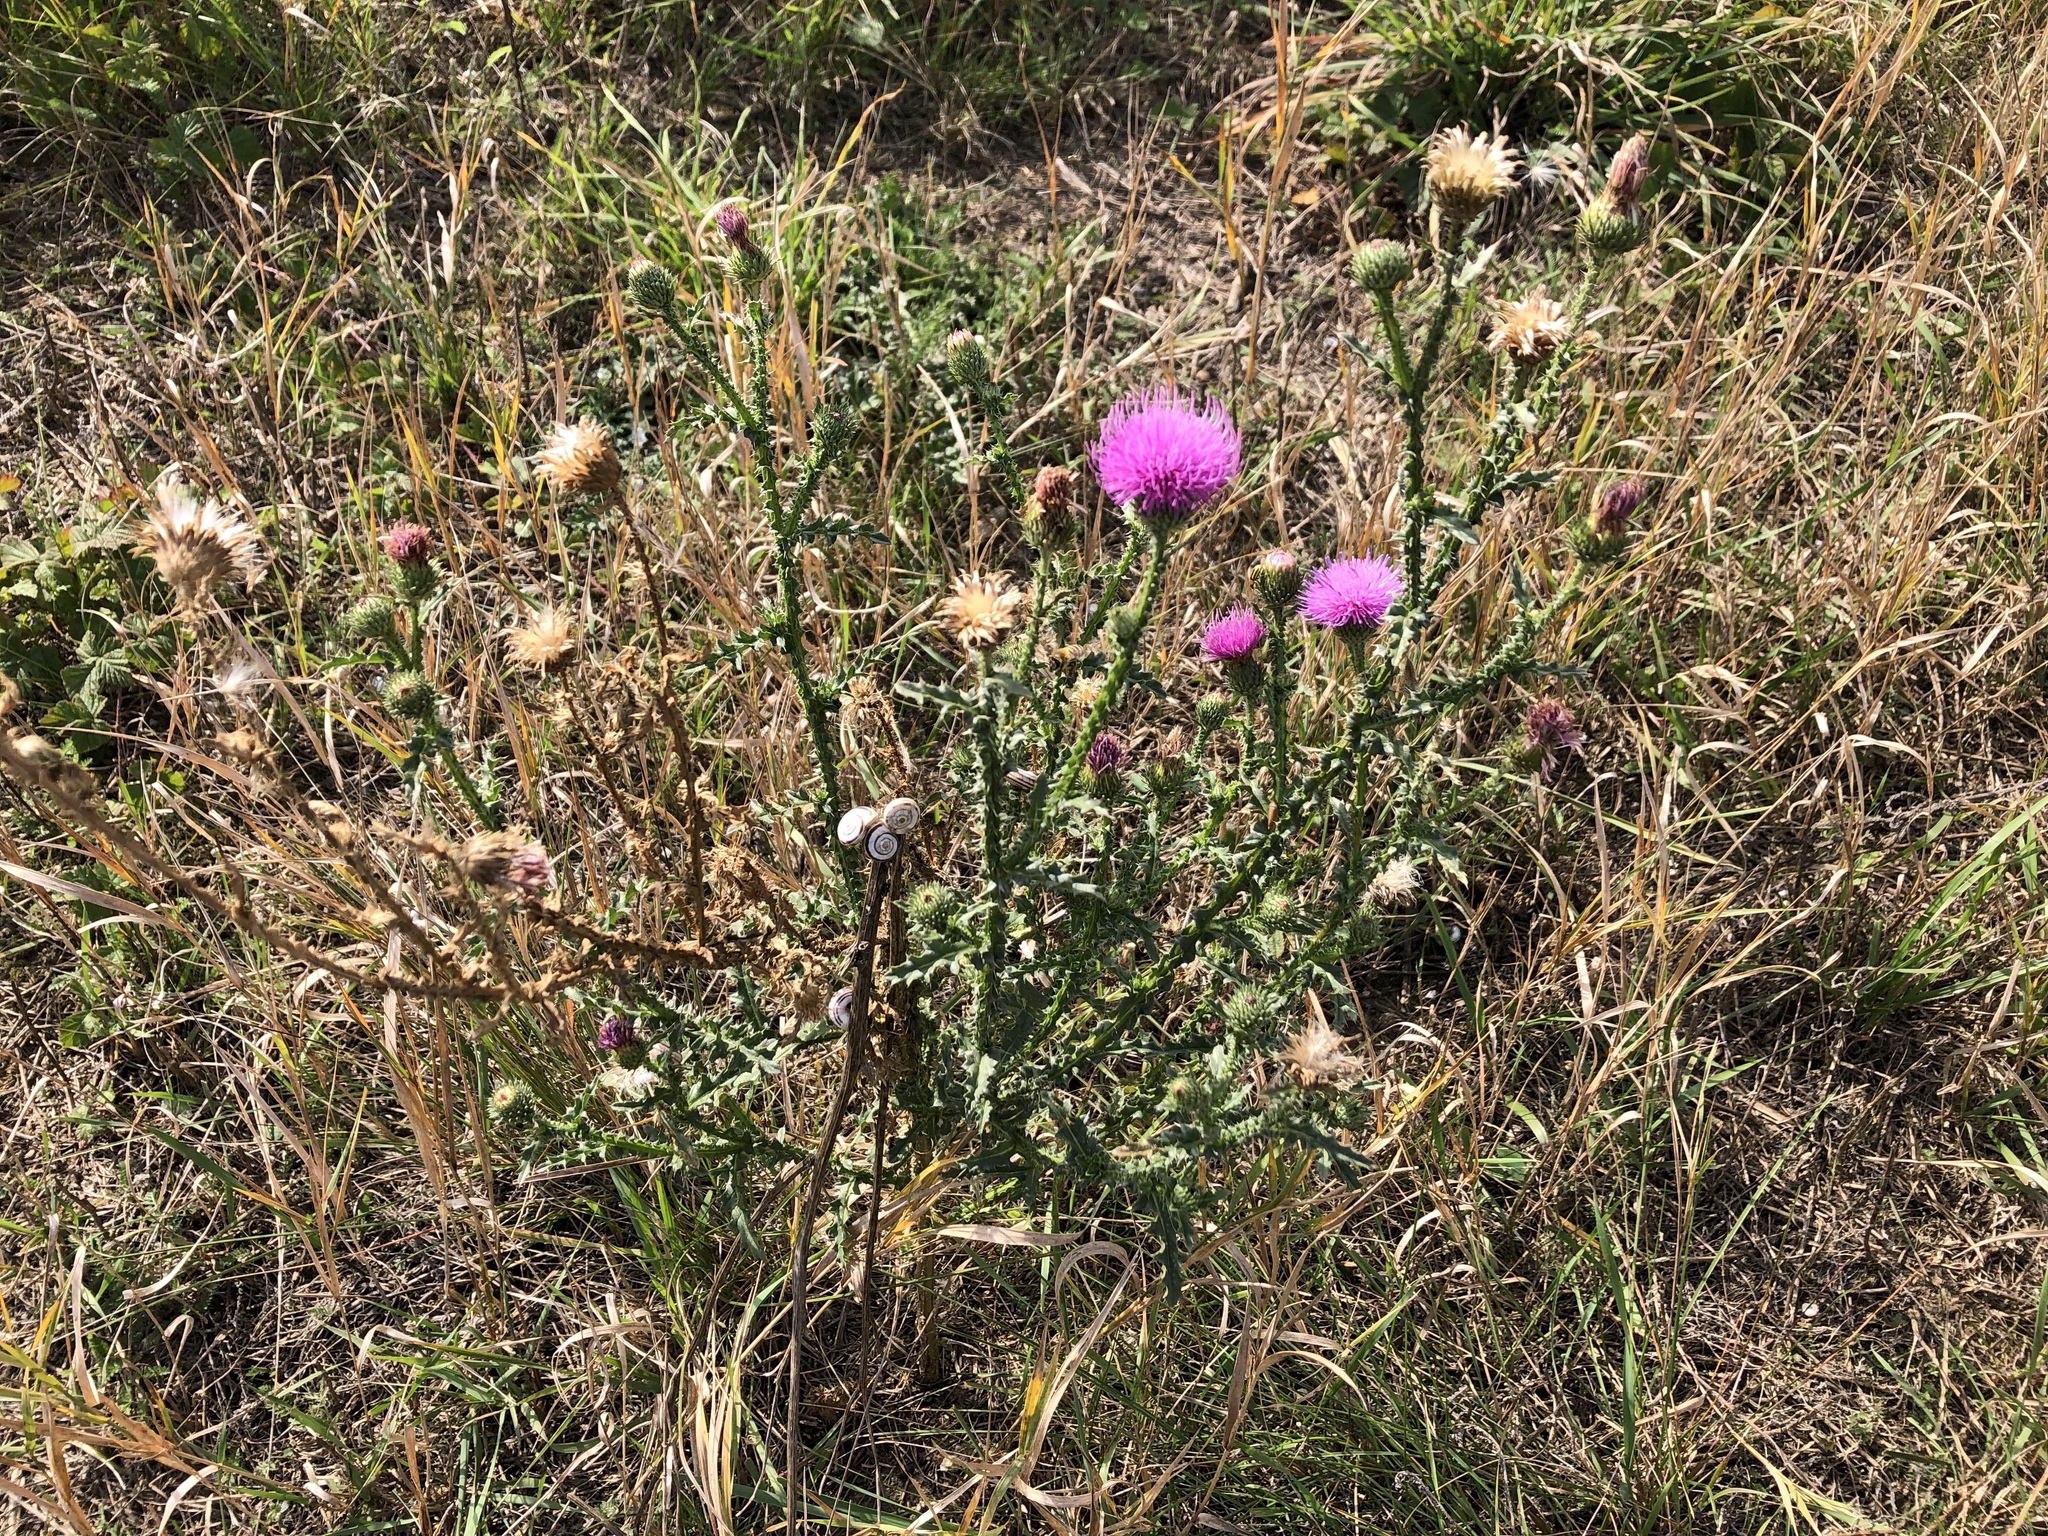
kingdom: Plantae
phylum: Tracheophyta
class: Magnoliopsida
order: Asterales
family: Asteraceae
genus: Carduus
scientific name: Carduus acanthoides
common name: Plumeless thistle
